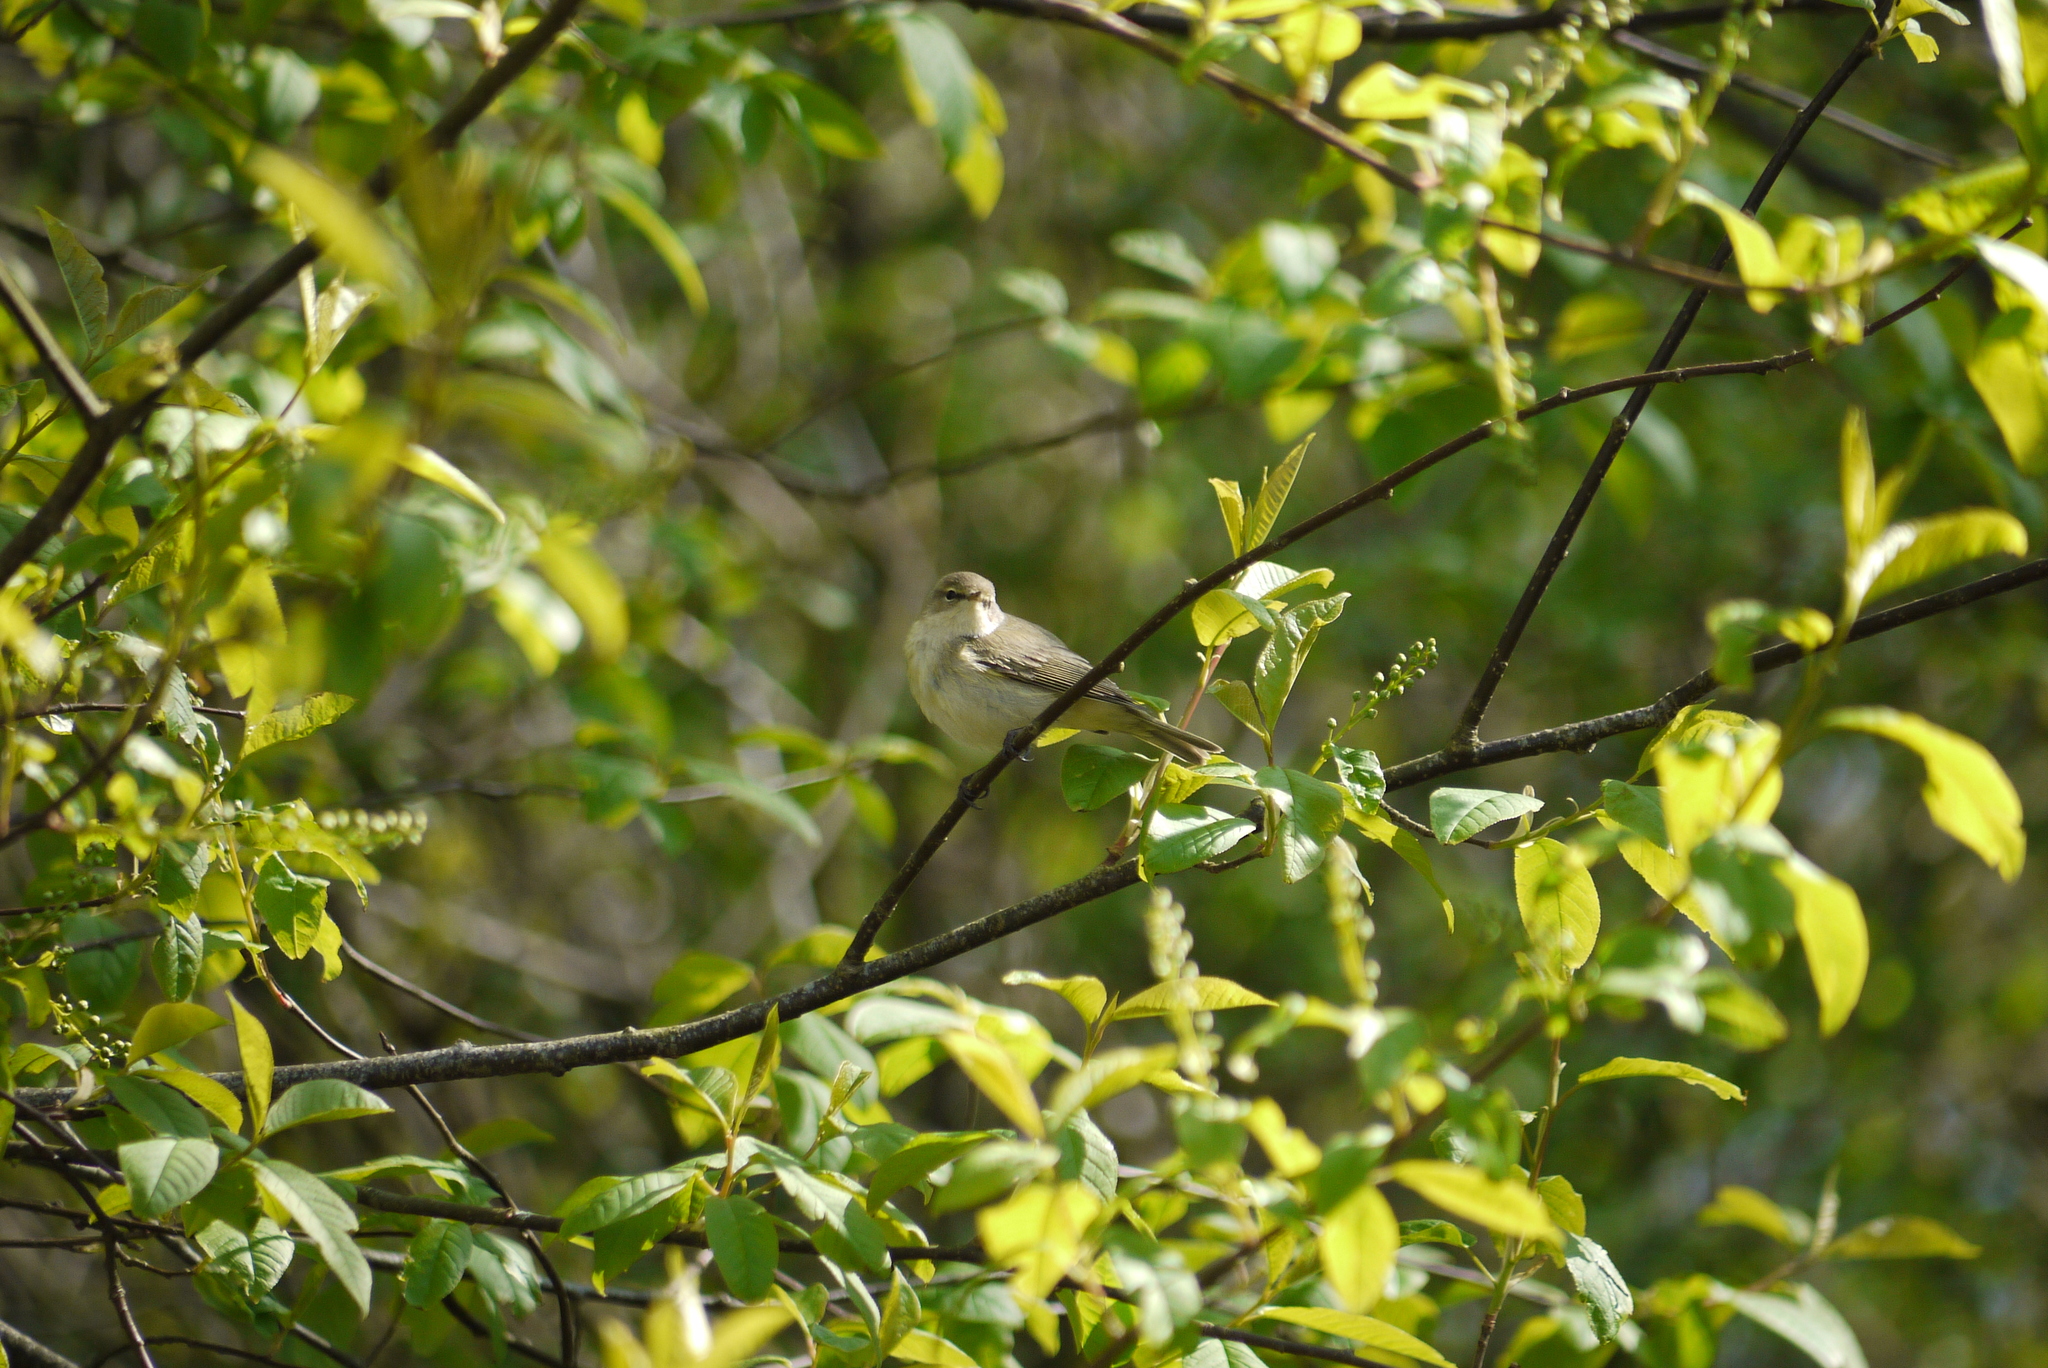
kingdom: Animalia
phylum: Chordata
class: Aves
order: Passeriformes
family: Phylloscopidae
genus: Phylloscopus
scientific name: Phylloscopus collybita
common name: Common chiffchaff
